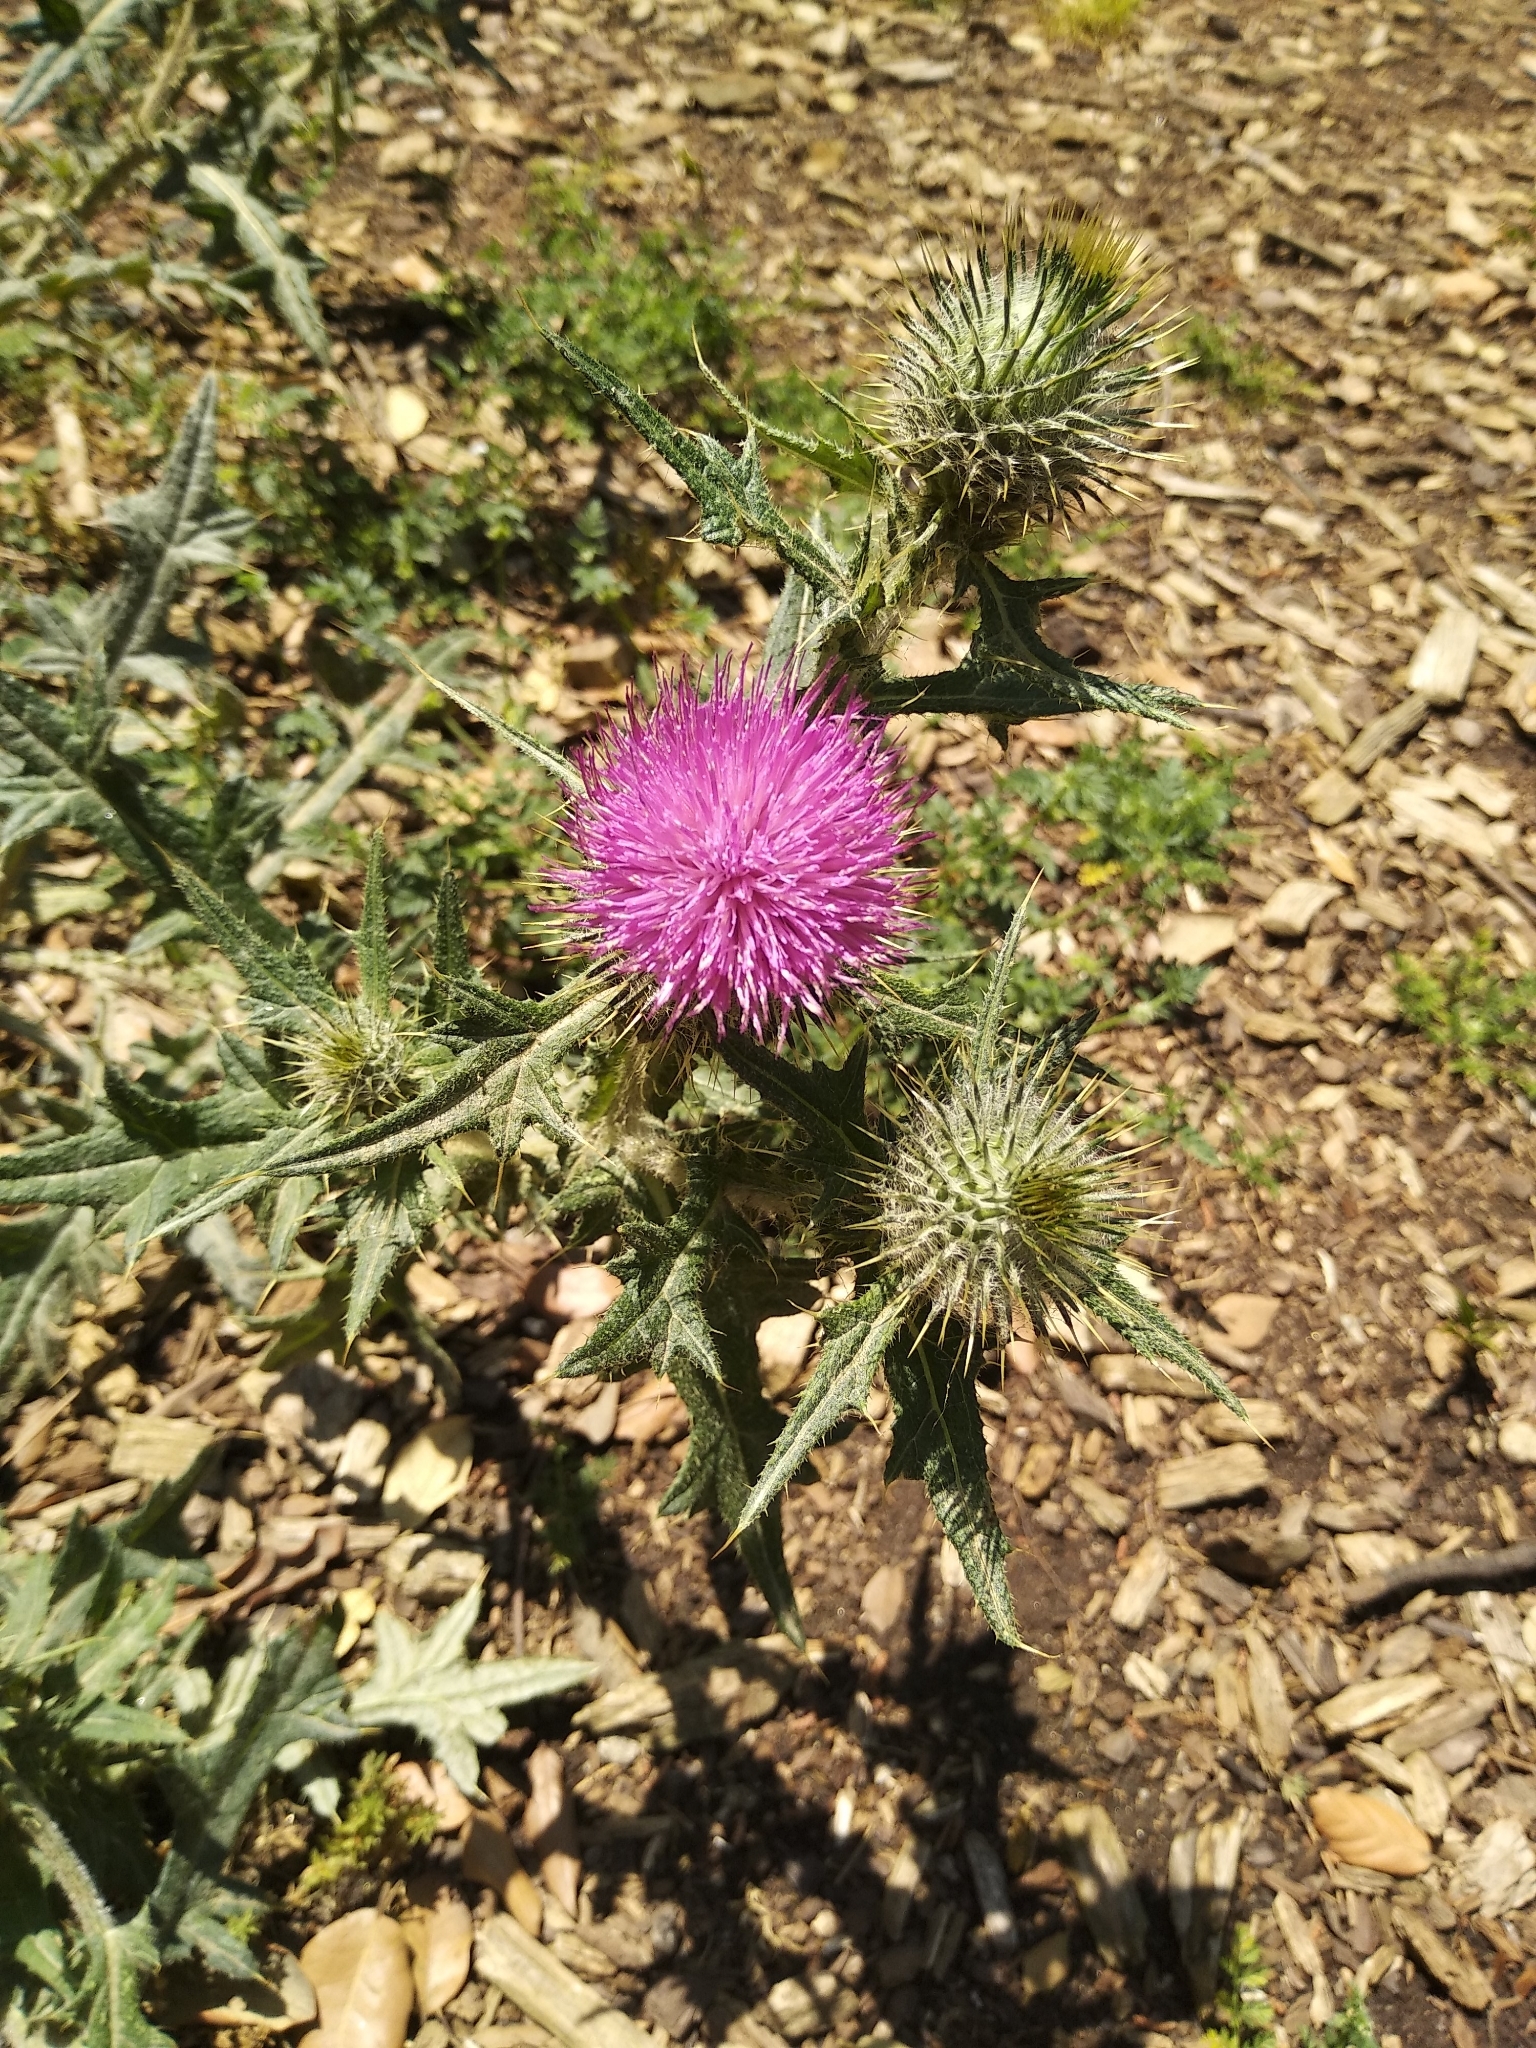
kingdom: Plantae
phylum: Tracheophyta
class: Magnoliopsida
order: Asterales
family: Asteraceae
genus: Cirsium
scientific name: Cirsium vulgare
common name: Bull thistle
